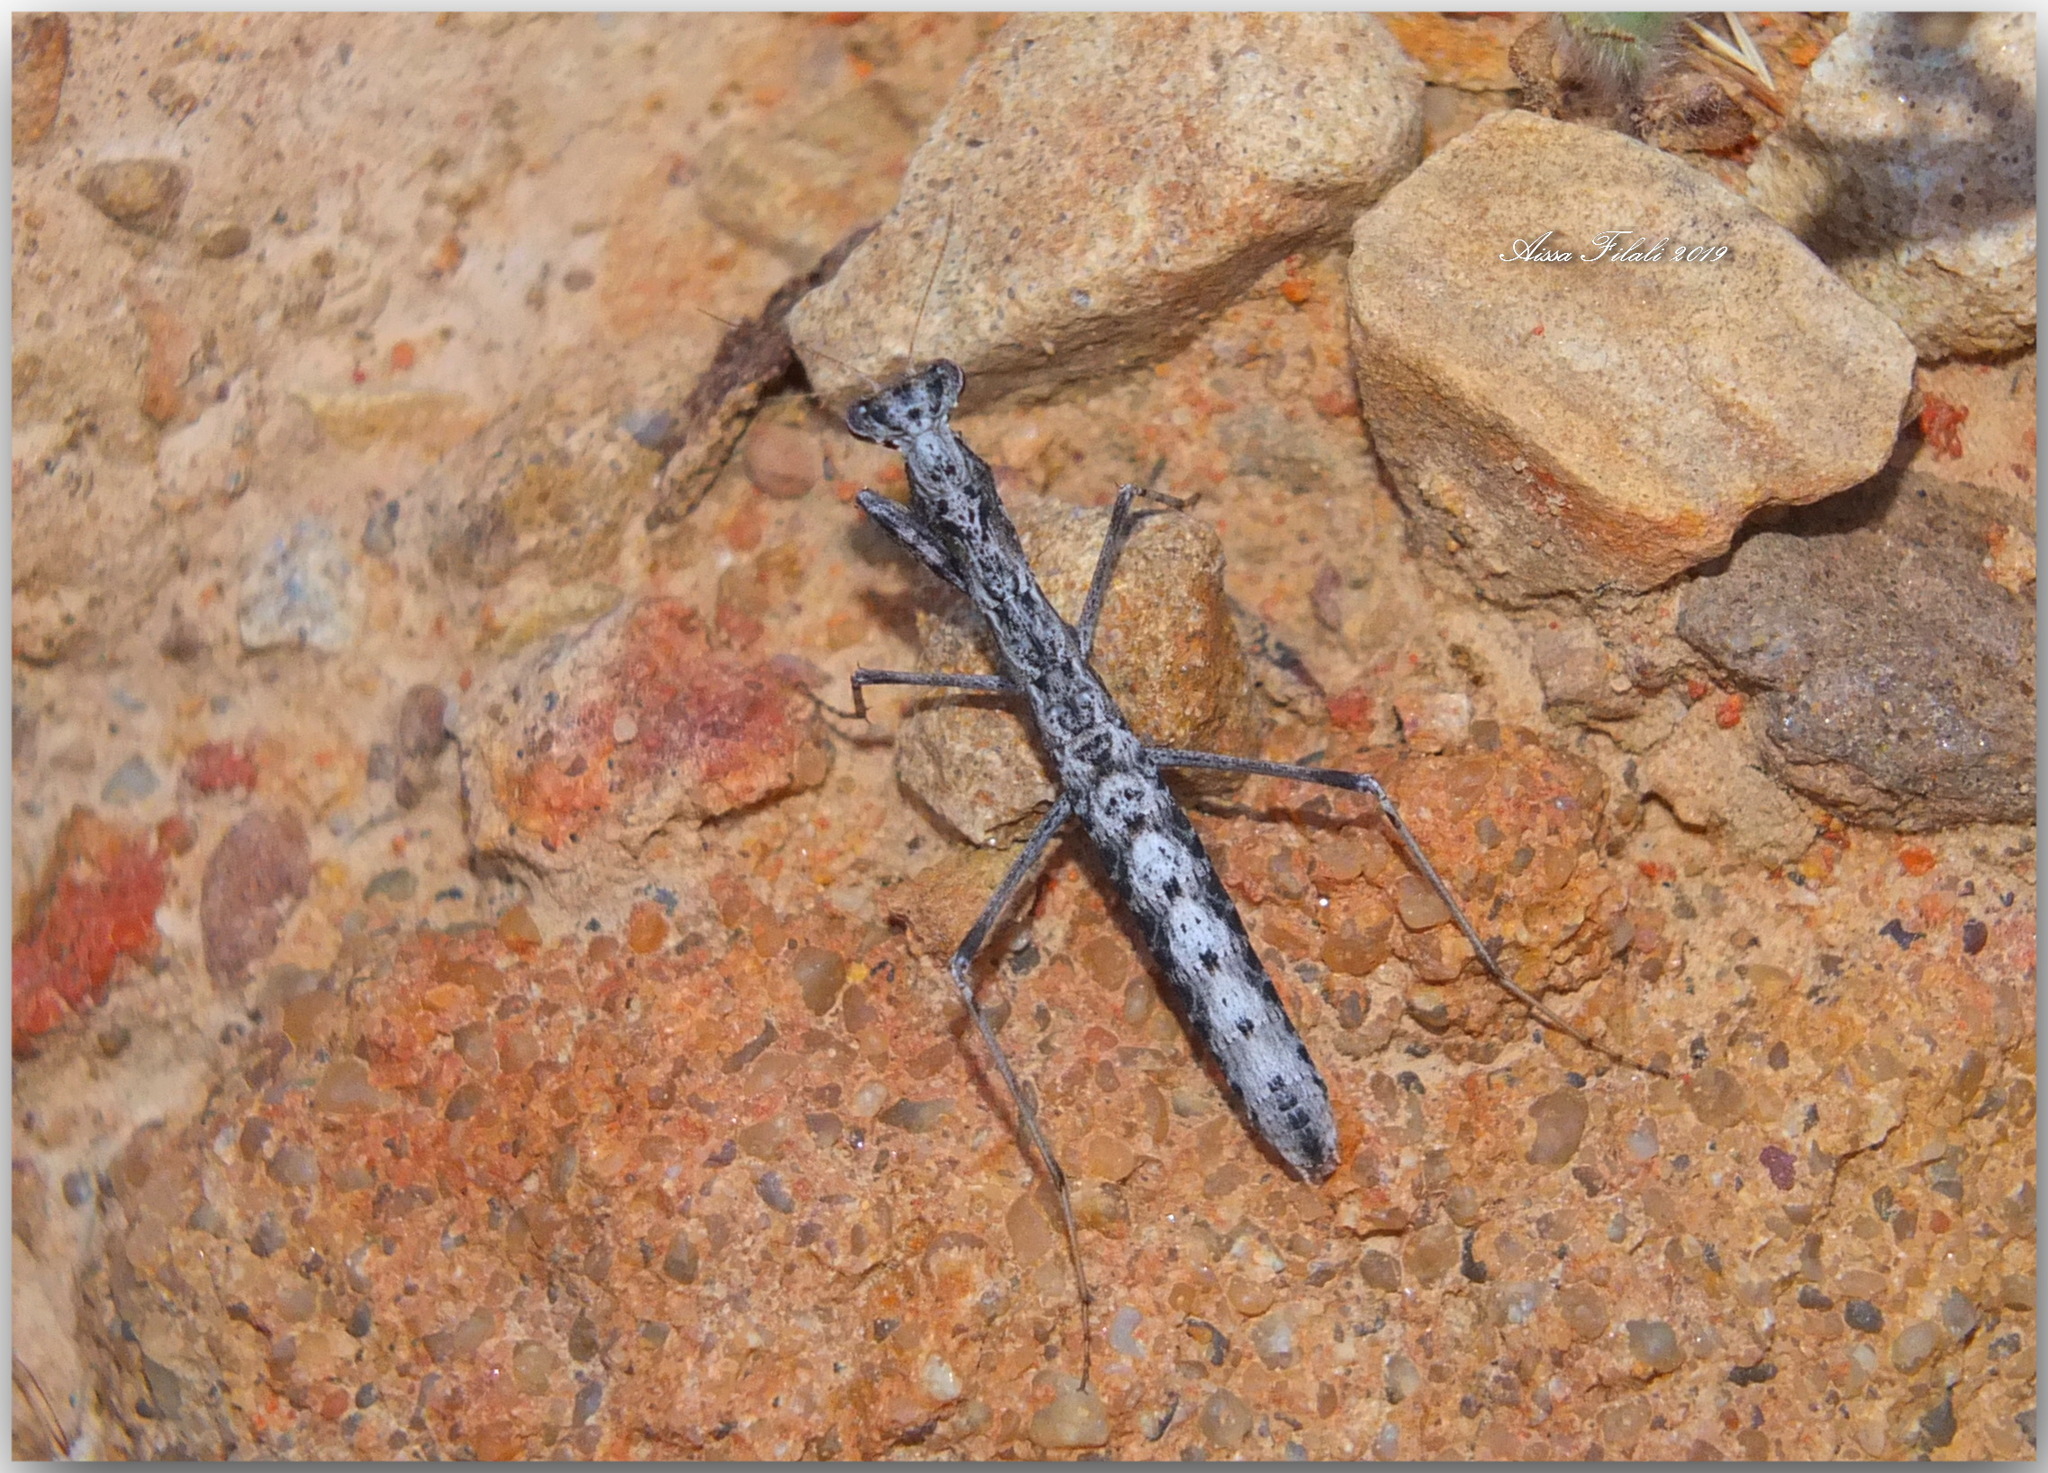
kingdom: Animalia
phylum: Arthropoda
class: Insecta
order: Mantodea
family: Rivetinidae
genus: Geomantis
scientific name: Geomantis larvoides
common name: Wingless ground mantis
